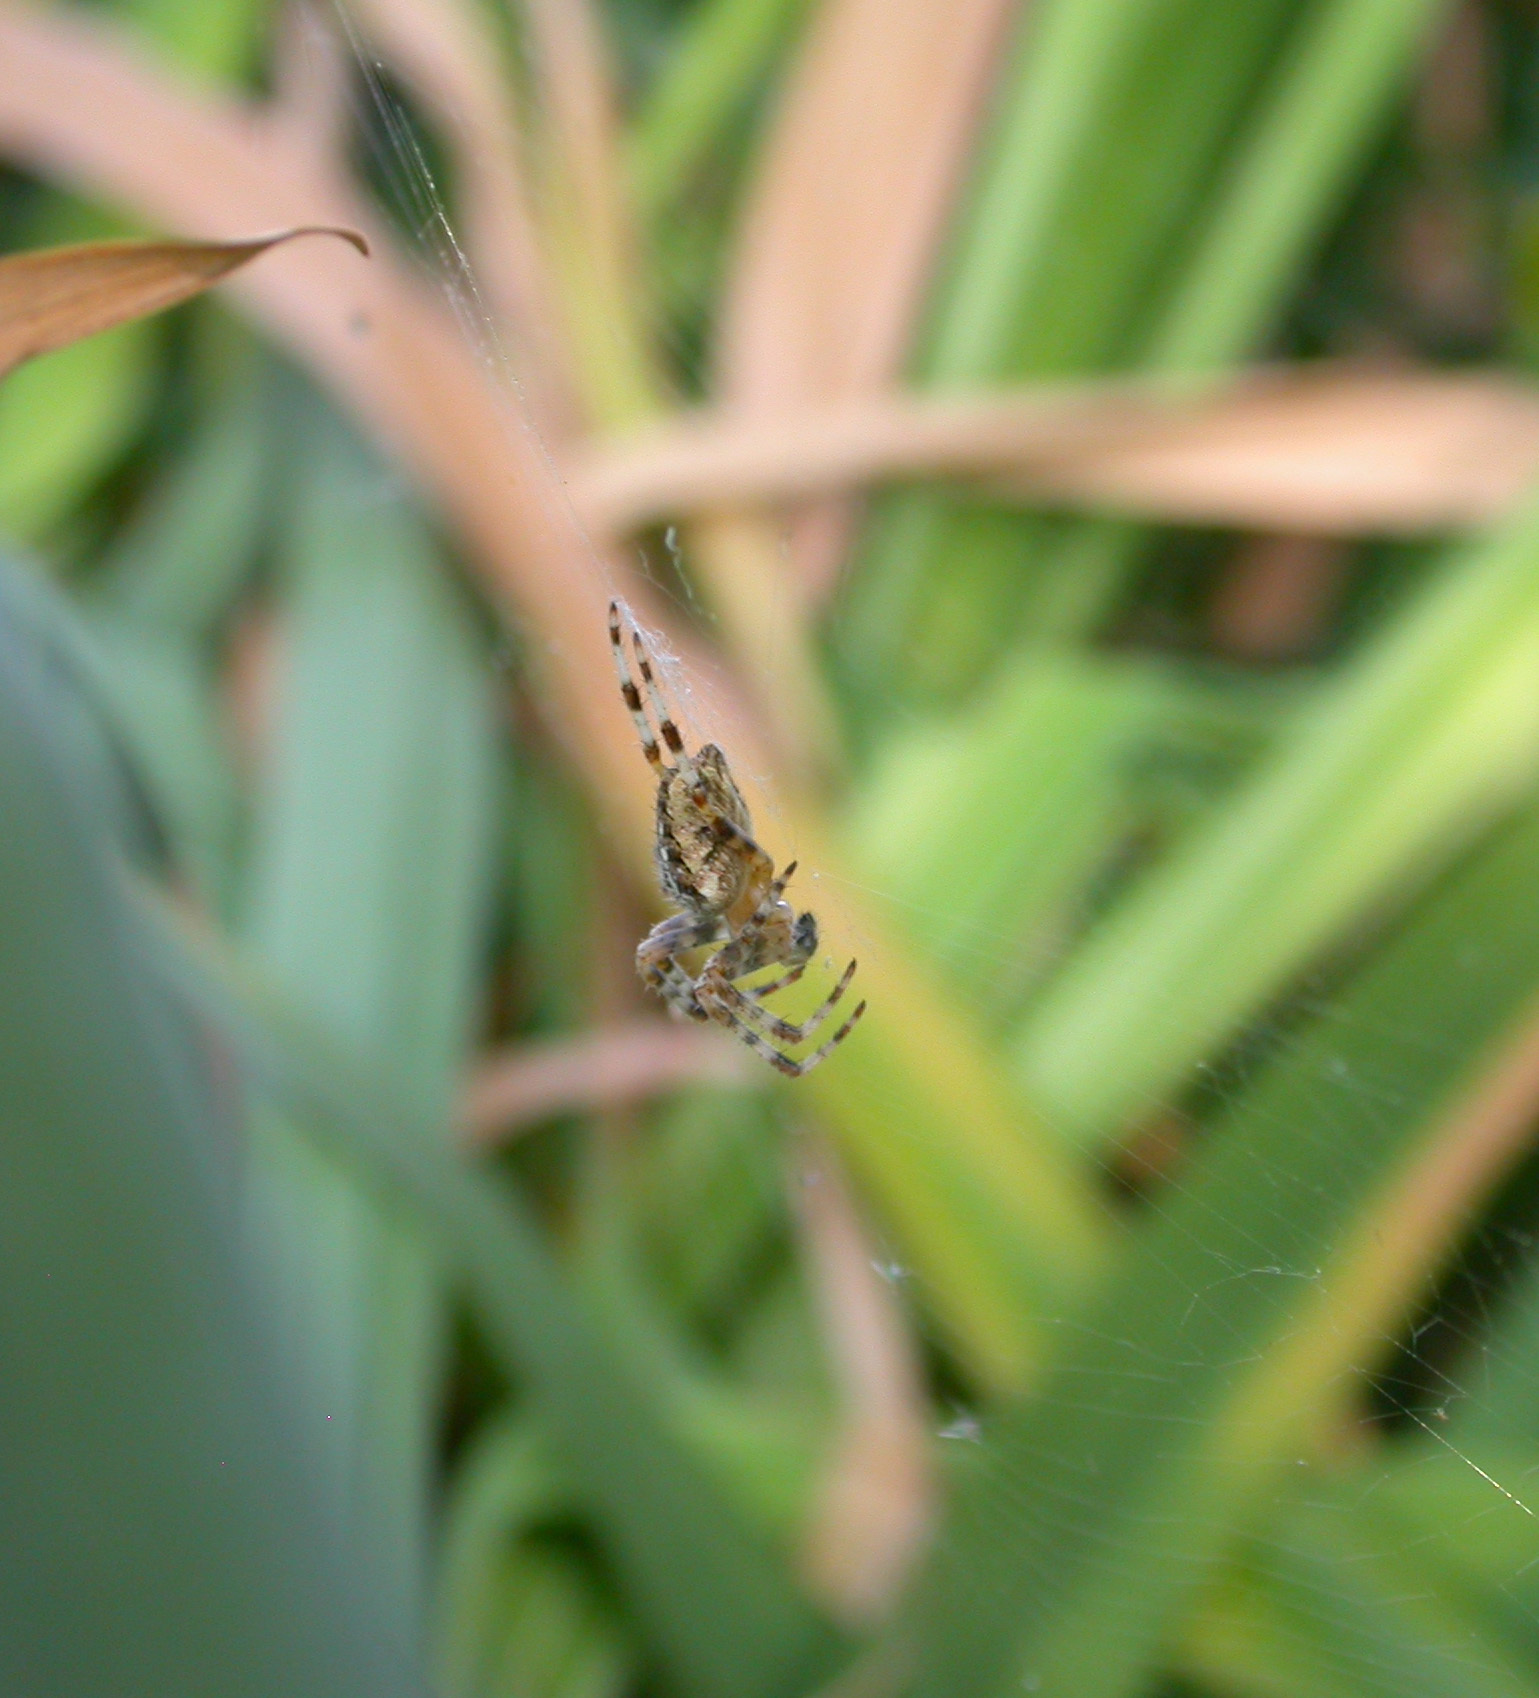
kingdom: Animalia
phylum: Arthropoda
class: Arachnida
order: Araneae
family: Araneidae
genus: Araneus
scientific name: Araneus diadematus
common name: Cross orbweaver
